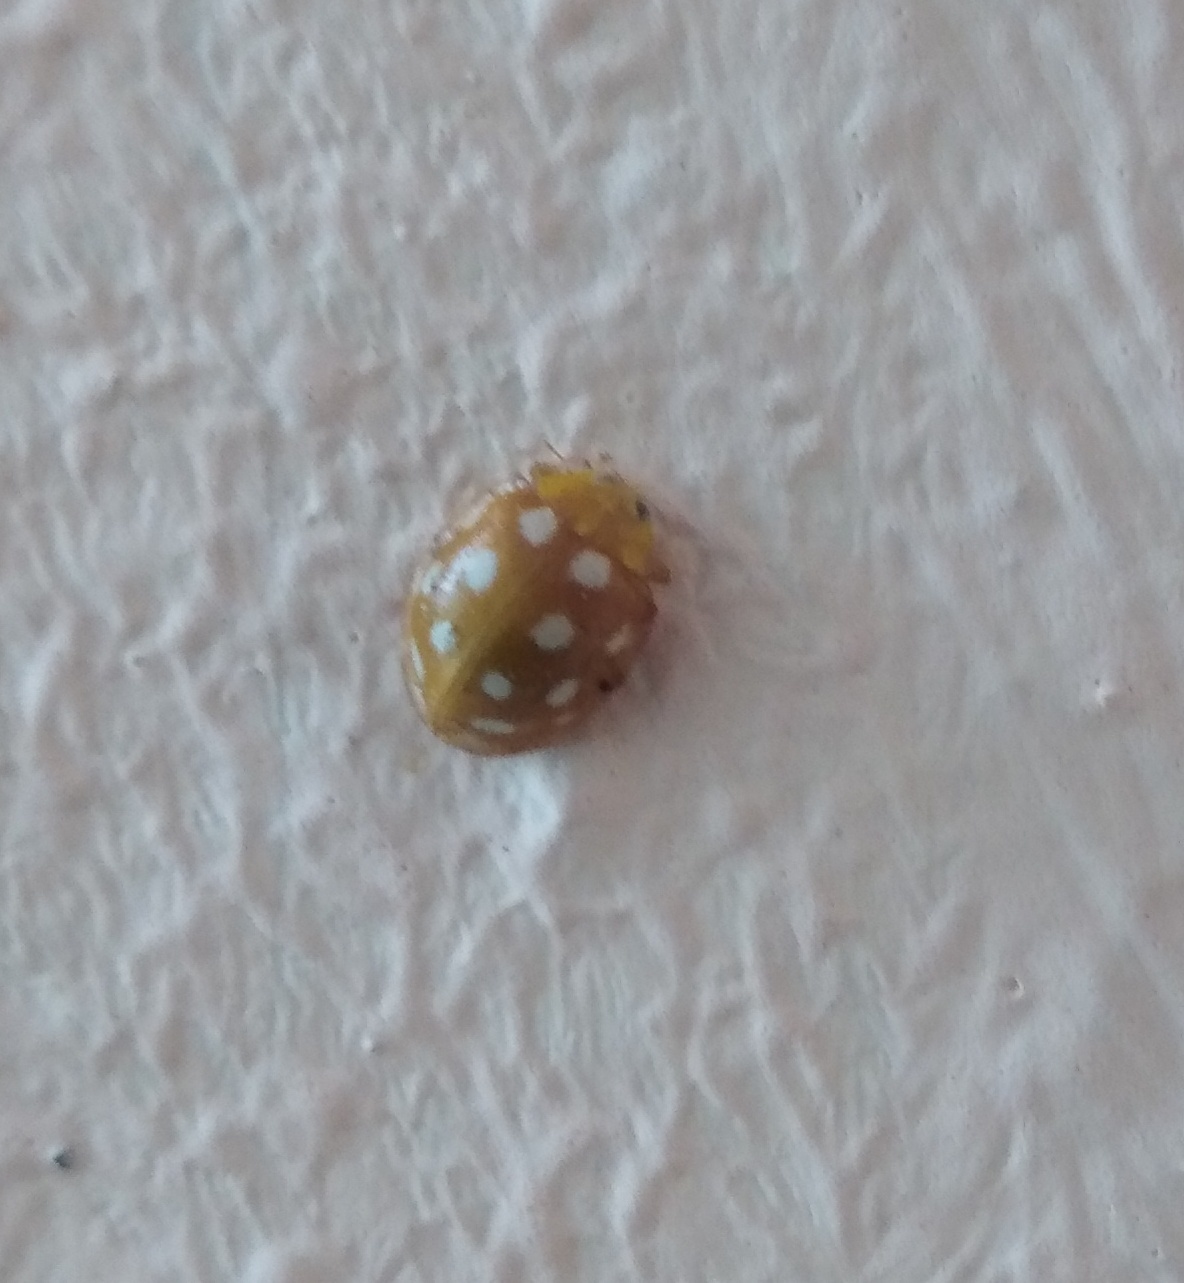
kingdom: Animalia
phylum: Arthropoda
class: Insecta
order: Coleoptera
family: Coccinellidae
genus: Halyzia
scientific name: Halyzia sedecimguttata
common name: Orange ladybird
